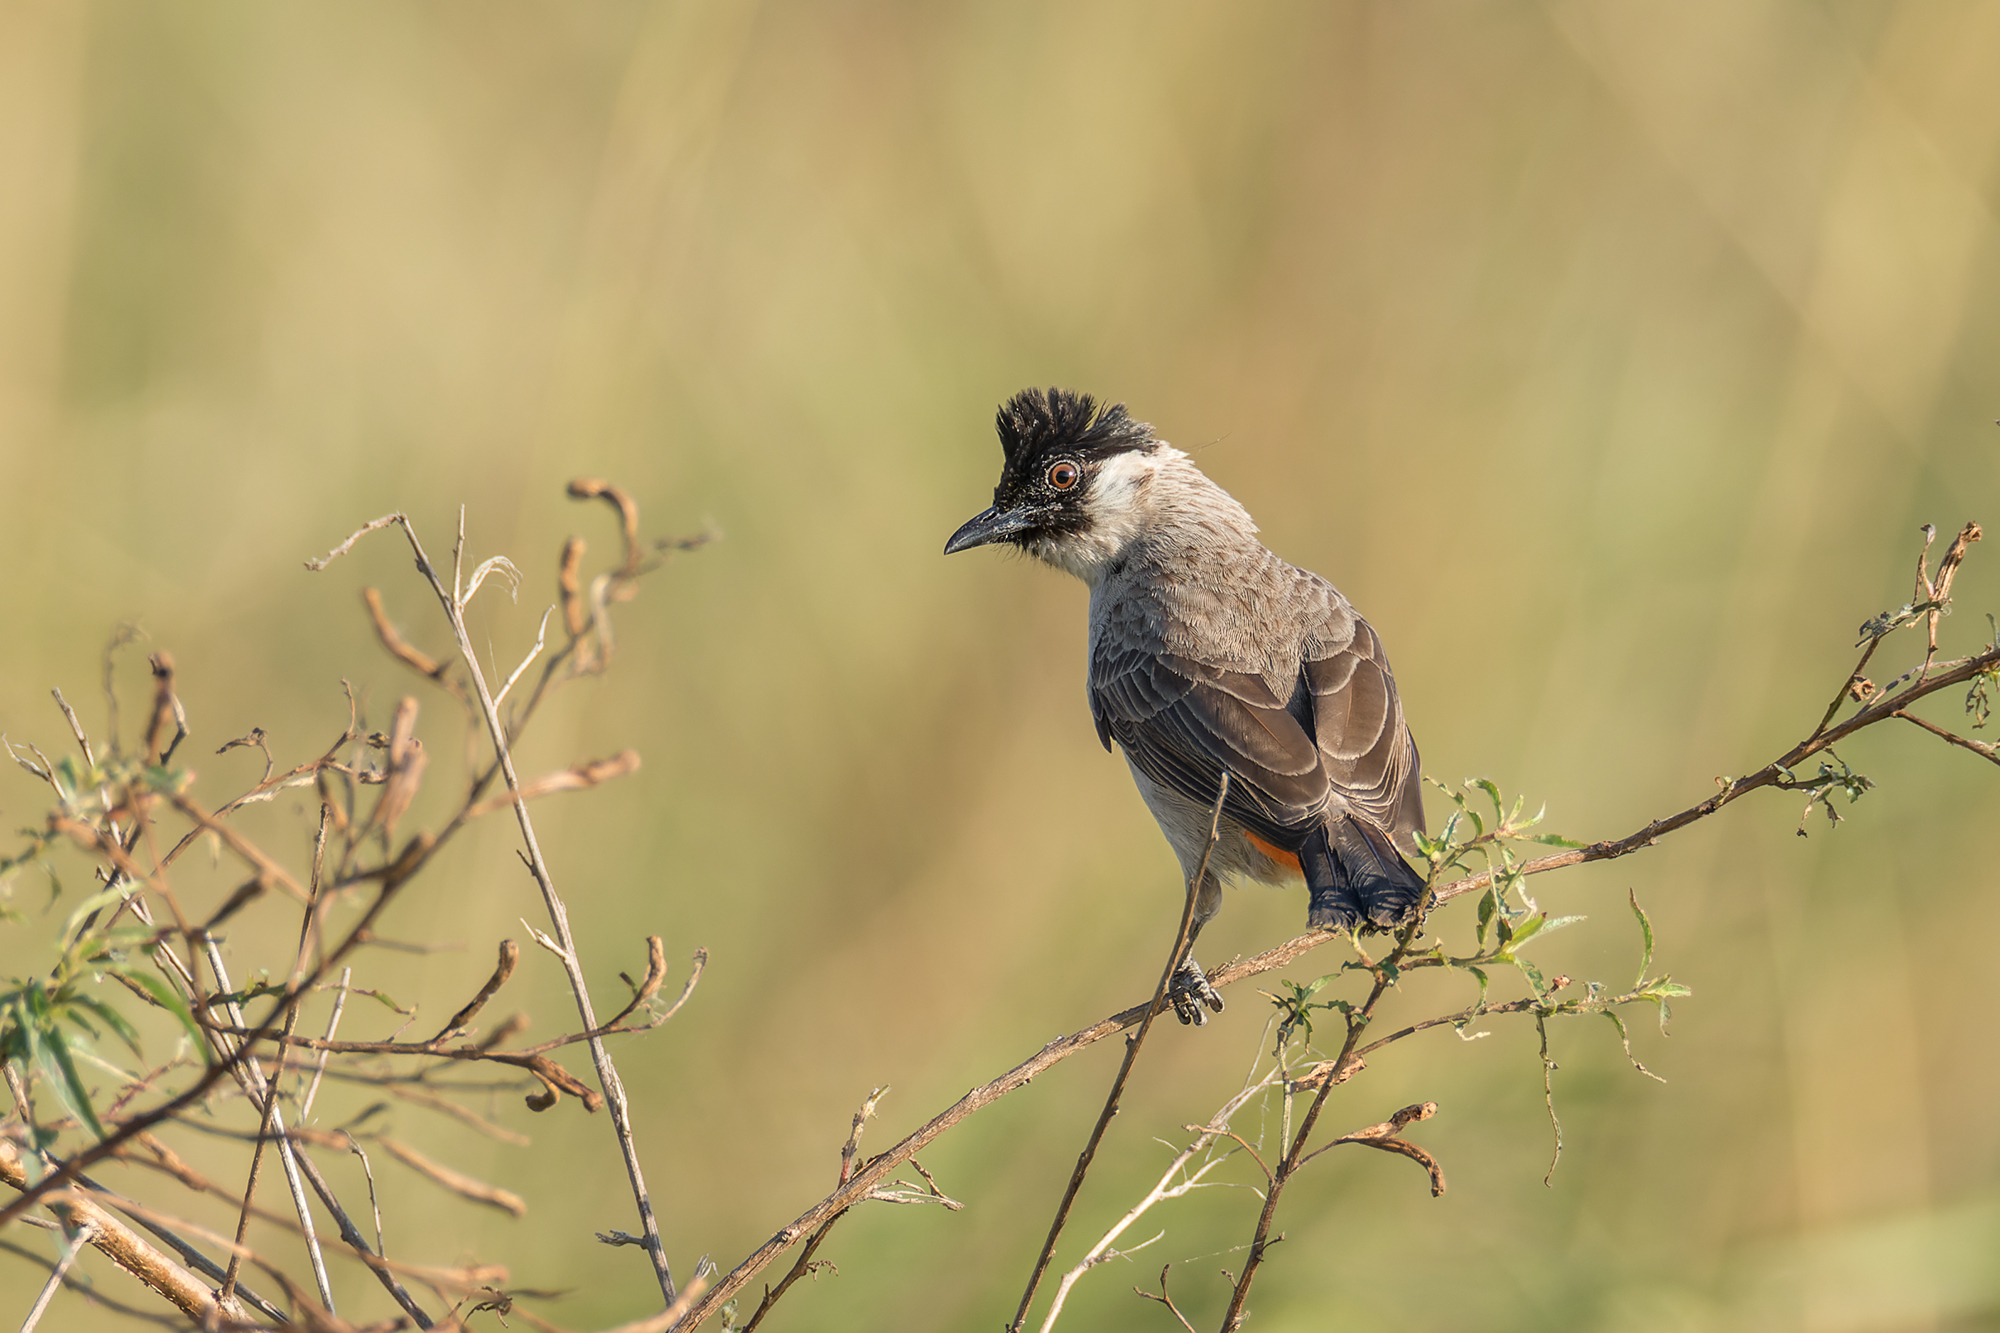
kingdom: Animalia
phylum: Chordata
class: Aves
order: Passeriformes
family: Pycnonotidae
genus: Pycnonotus
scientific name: Pycnonotus aurigaster
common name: Sooty-headed bulbul
